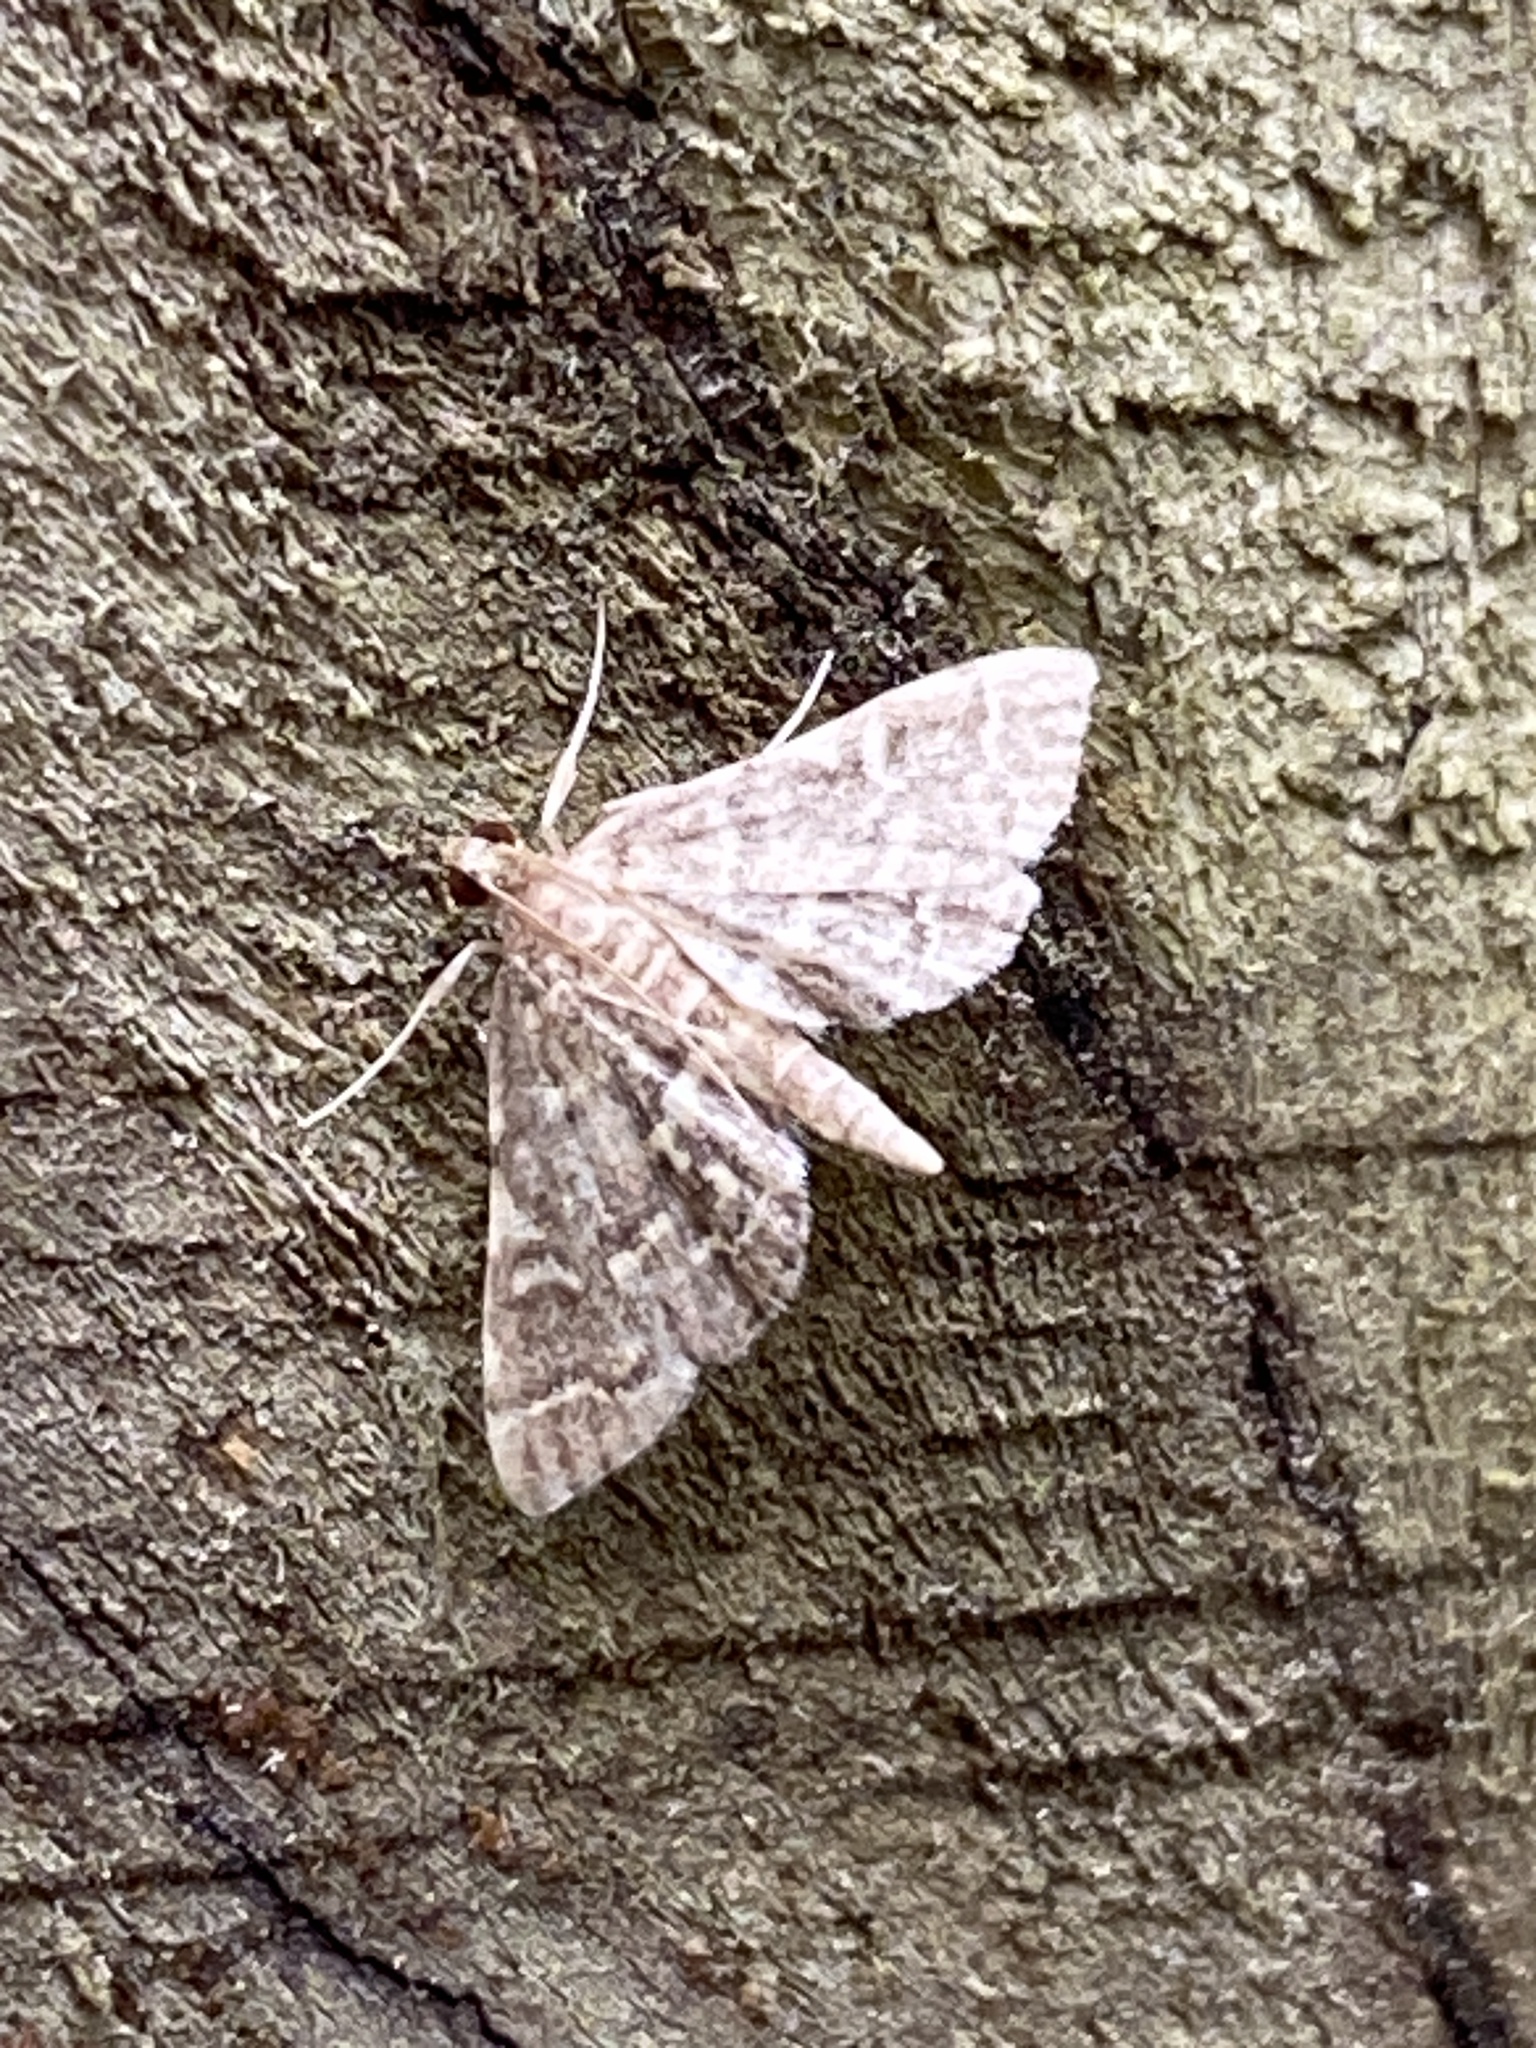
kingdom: Animalia
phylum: Arthropoda
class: Insecta
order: Lepidoptera
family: Crambidae
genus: Anageshna
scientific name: Anageshna primordialis
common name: Yellow-spotted webworm moth
